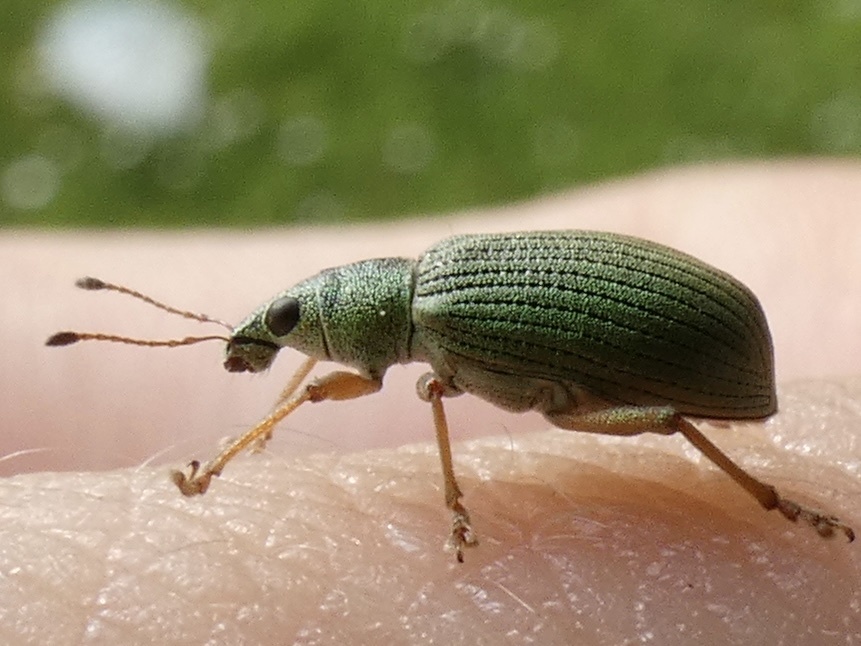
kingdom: Animalia
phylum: Arthropoda
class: Insecta
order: Coleoptera
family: Curculionidae
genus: Polydrusus
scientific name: Polydrusus formosus
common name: Weevil
